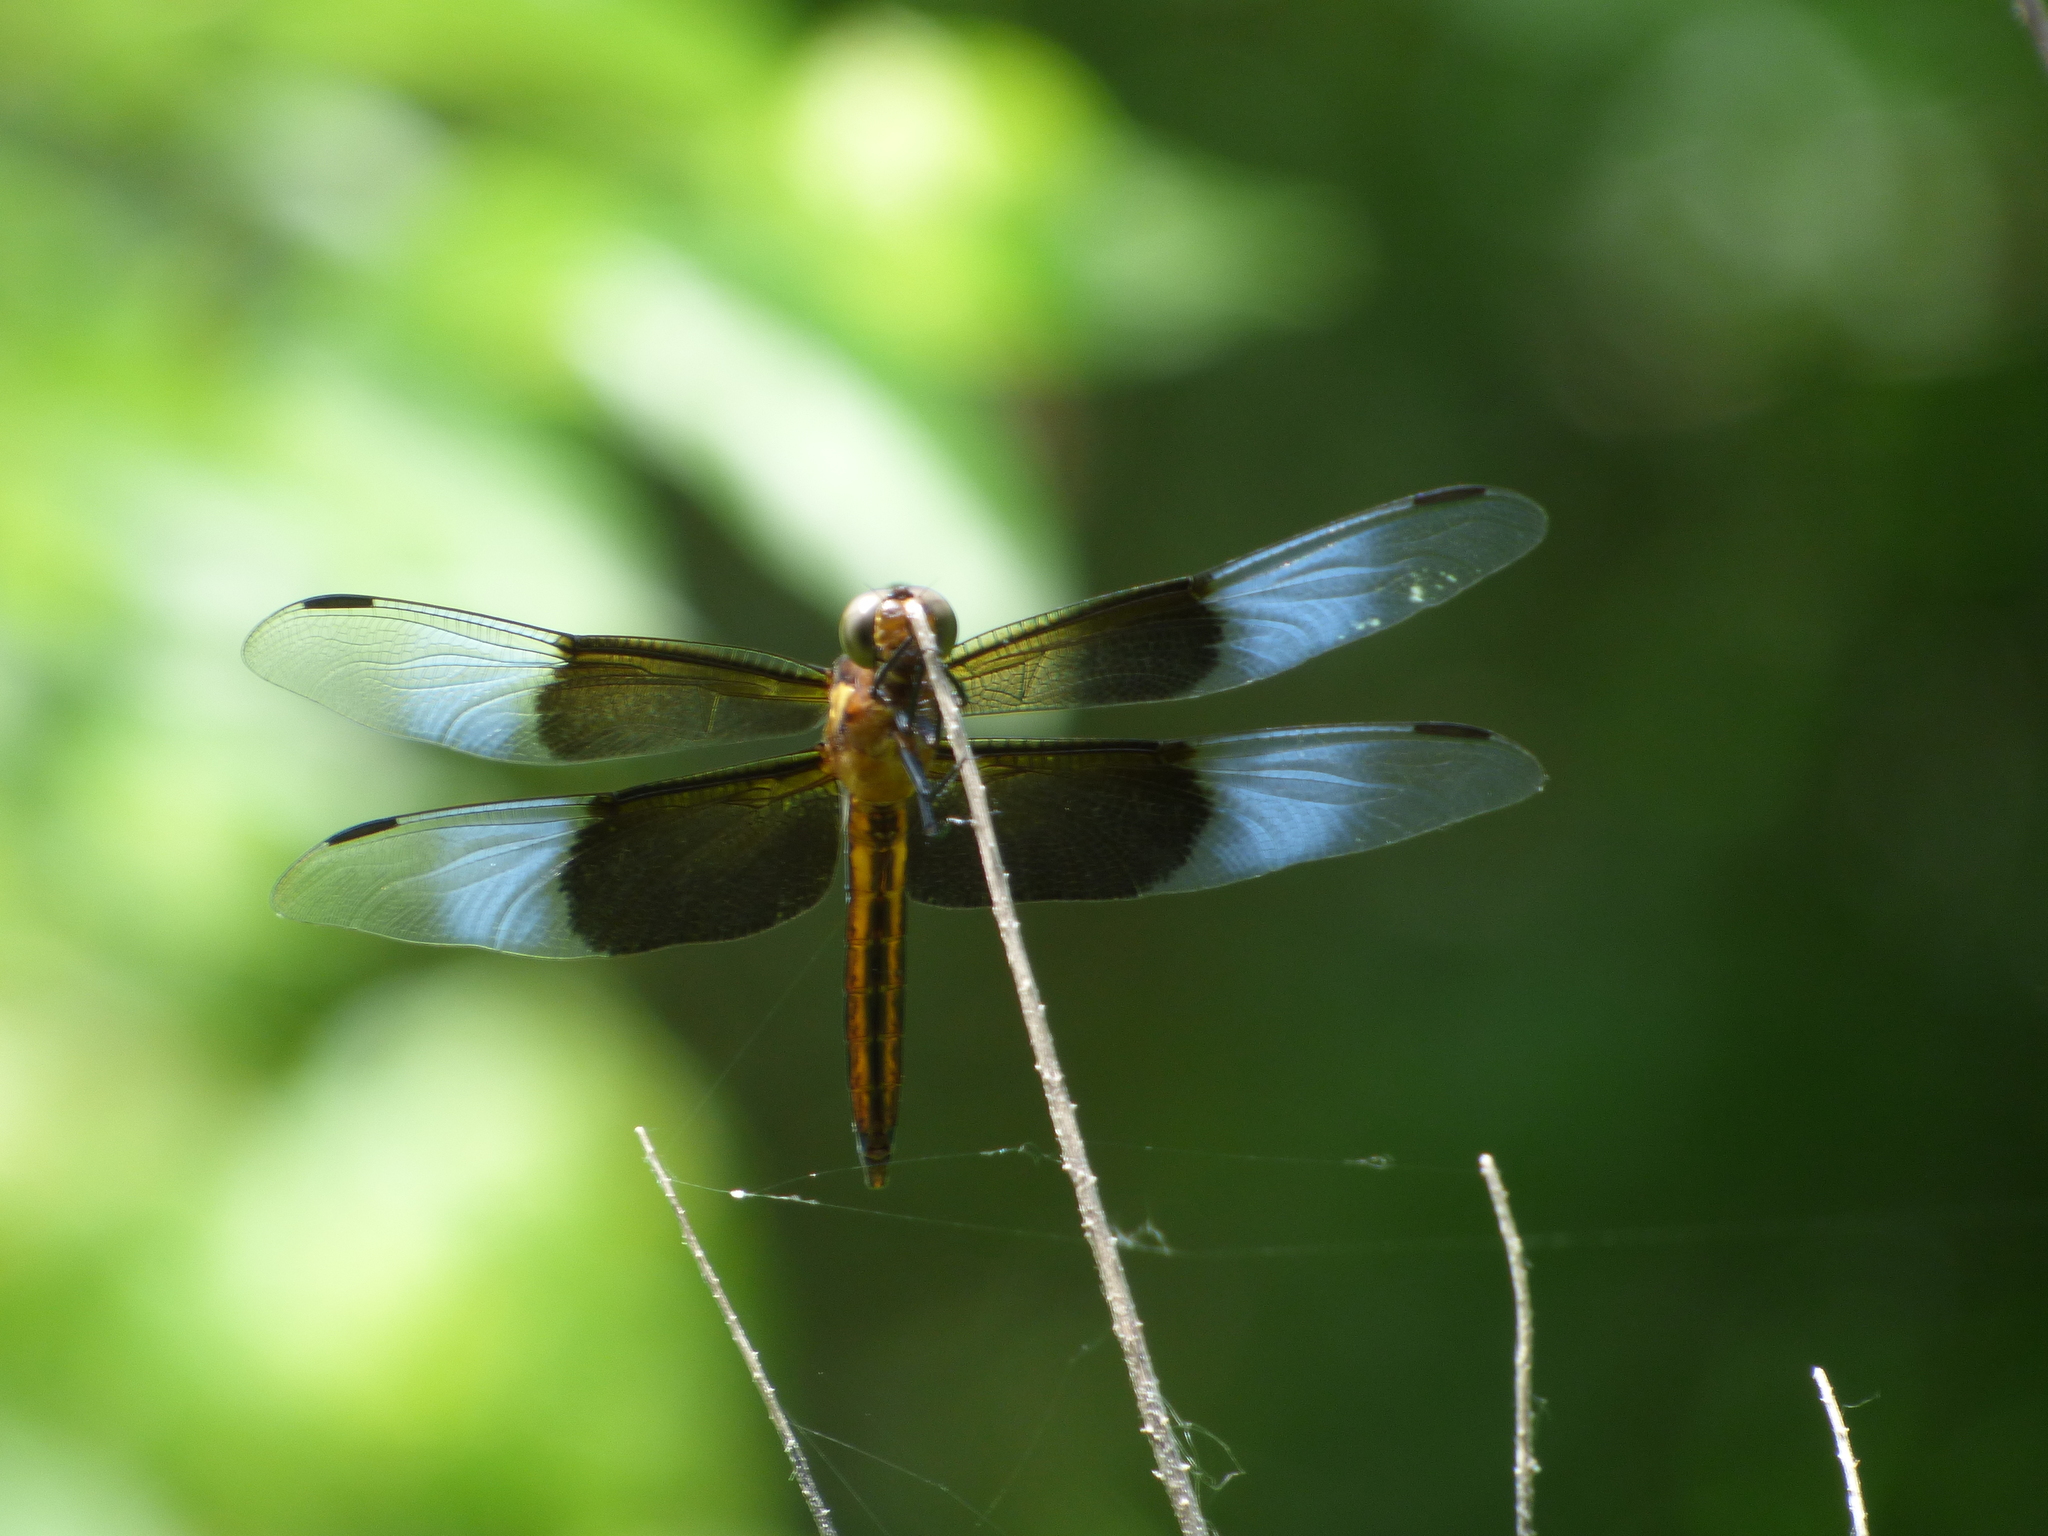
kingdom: Animalia
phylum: Arthropoda
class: Insecta
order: Odonata
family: Libellulidae
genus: Libellula
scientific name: Libellula luctuosa
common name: Widow skimmer
